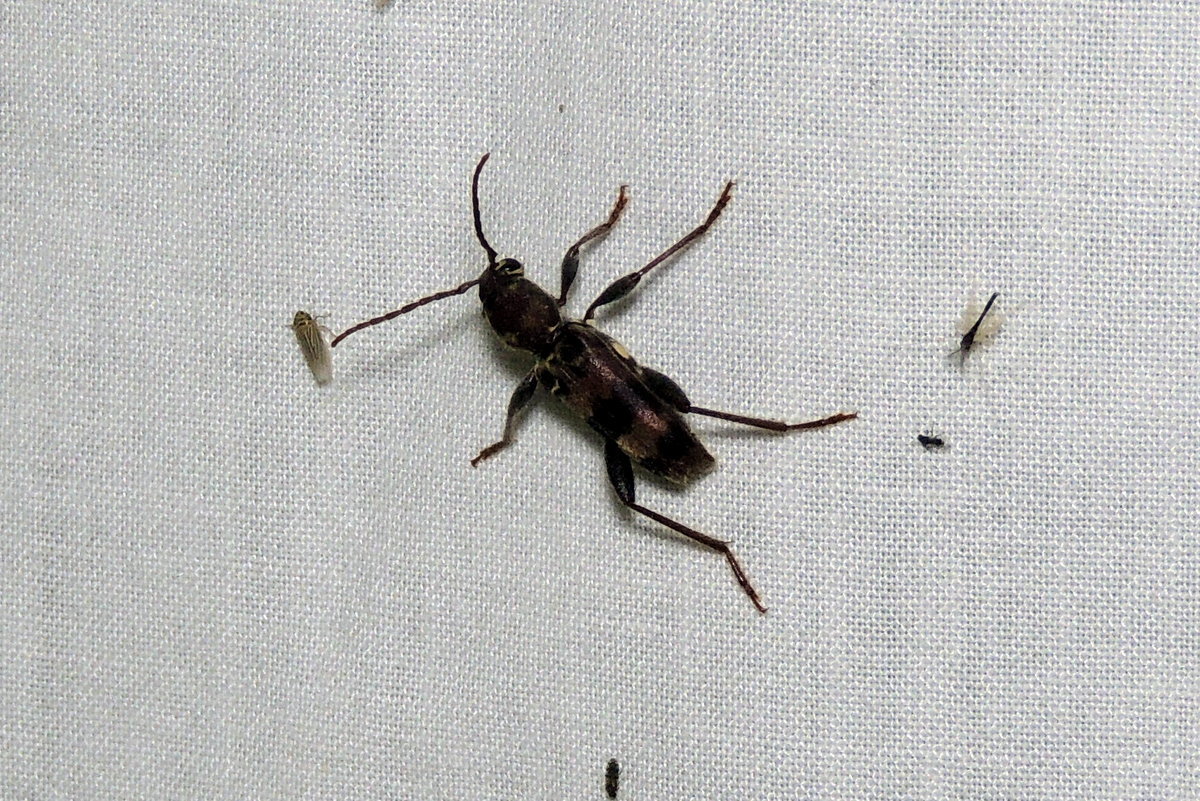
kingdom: Animalia
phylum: Arthropoda
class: Insecta
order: Coleoptera
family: Cerambycidae
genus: Xylotrechus
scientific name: Xylotrechus colonus
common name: Long-horned beetle
